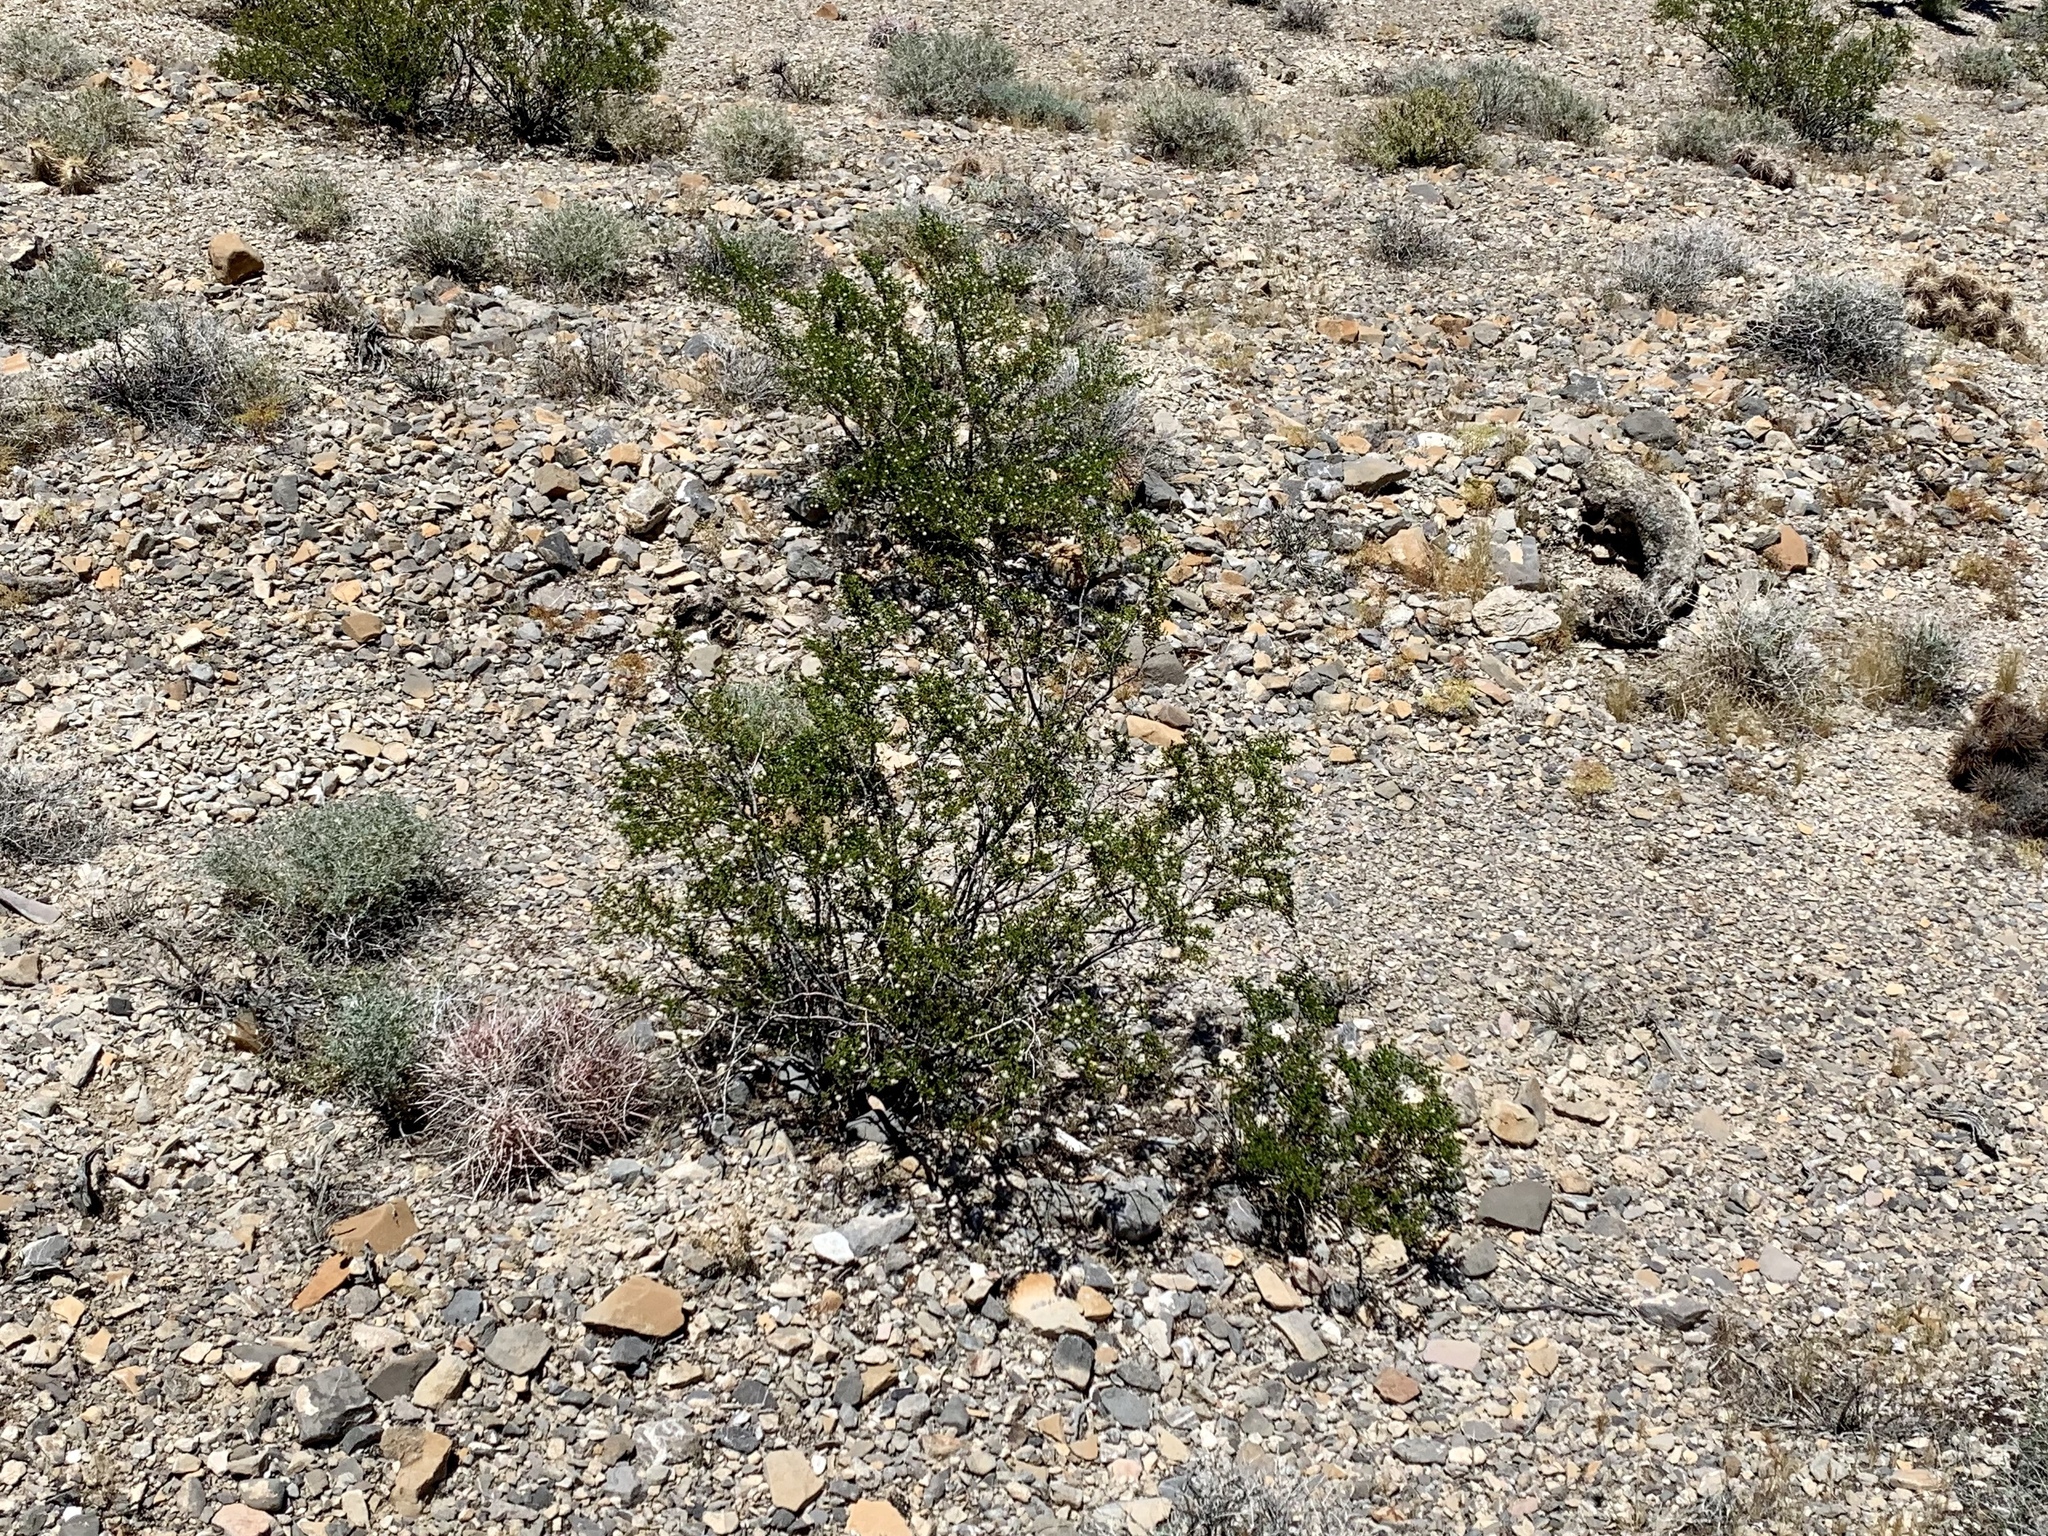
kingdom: Plantae
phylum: Tracheophyta
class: Magnoliopsida
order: Zygophyllales
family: Zygophyllaceae
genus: Larrea
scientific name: Larrea tridentata
